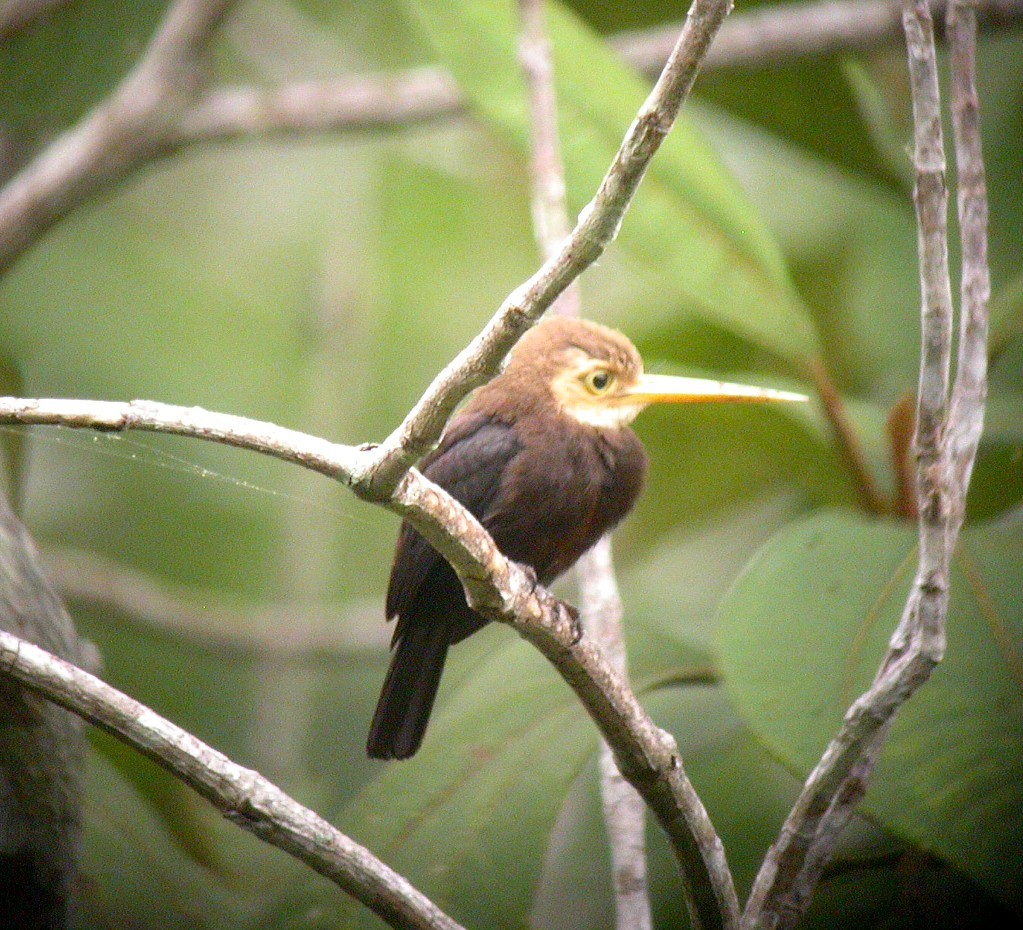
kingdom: Animalia
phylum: Chordata
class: Aves
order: Piciformes
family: Galbulidae
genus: Brachygalba
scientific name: Brachygalba albogularis
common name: White-throated jacamar
